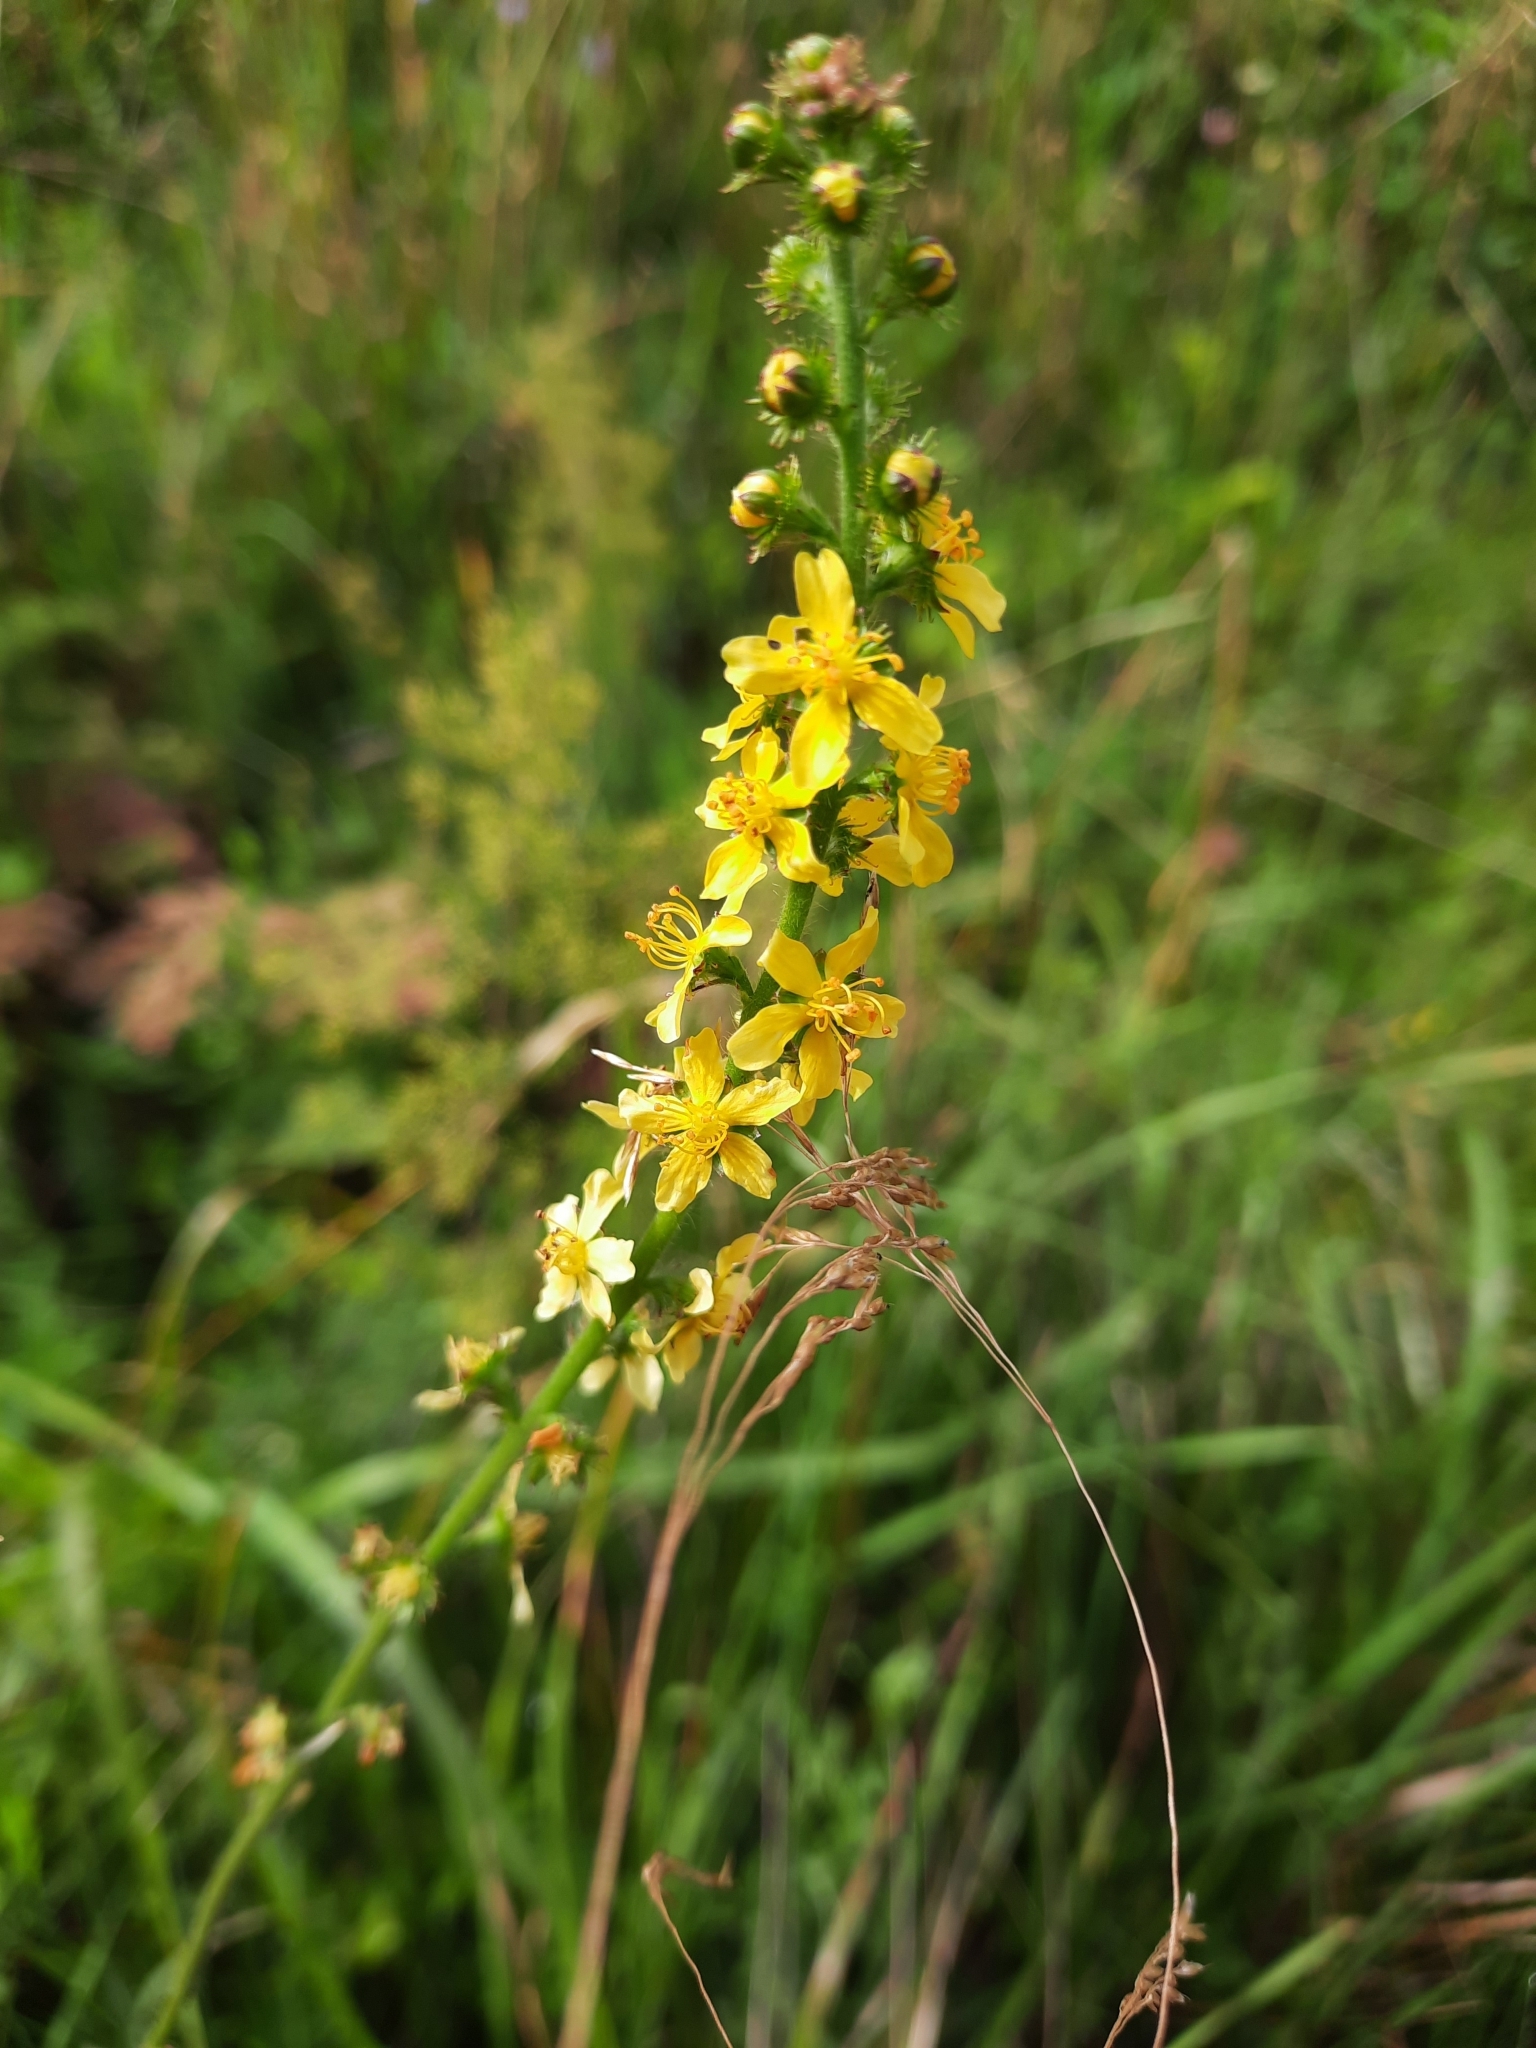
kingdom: Plantae
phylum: Tracheophyta
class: Magnoliopsida
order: Rosales
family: Rosaceae
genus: Agrimonia
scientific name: Agrimonia eupatoria
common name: Agrimony
